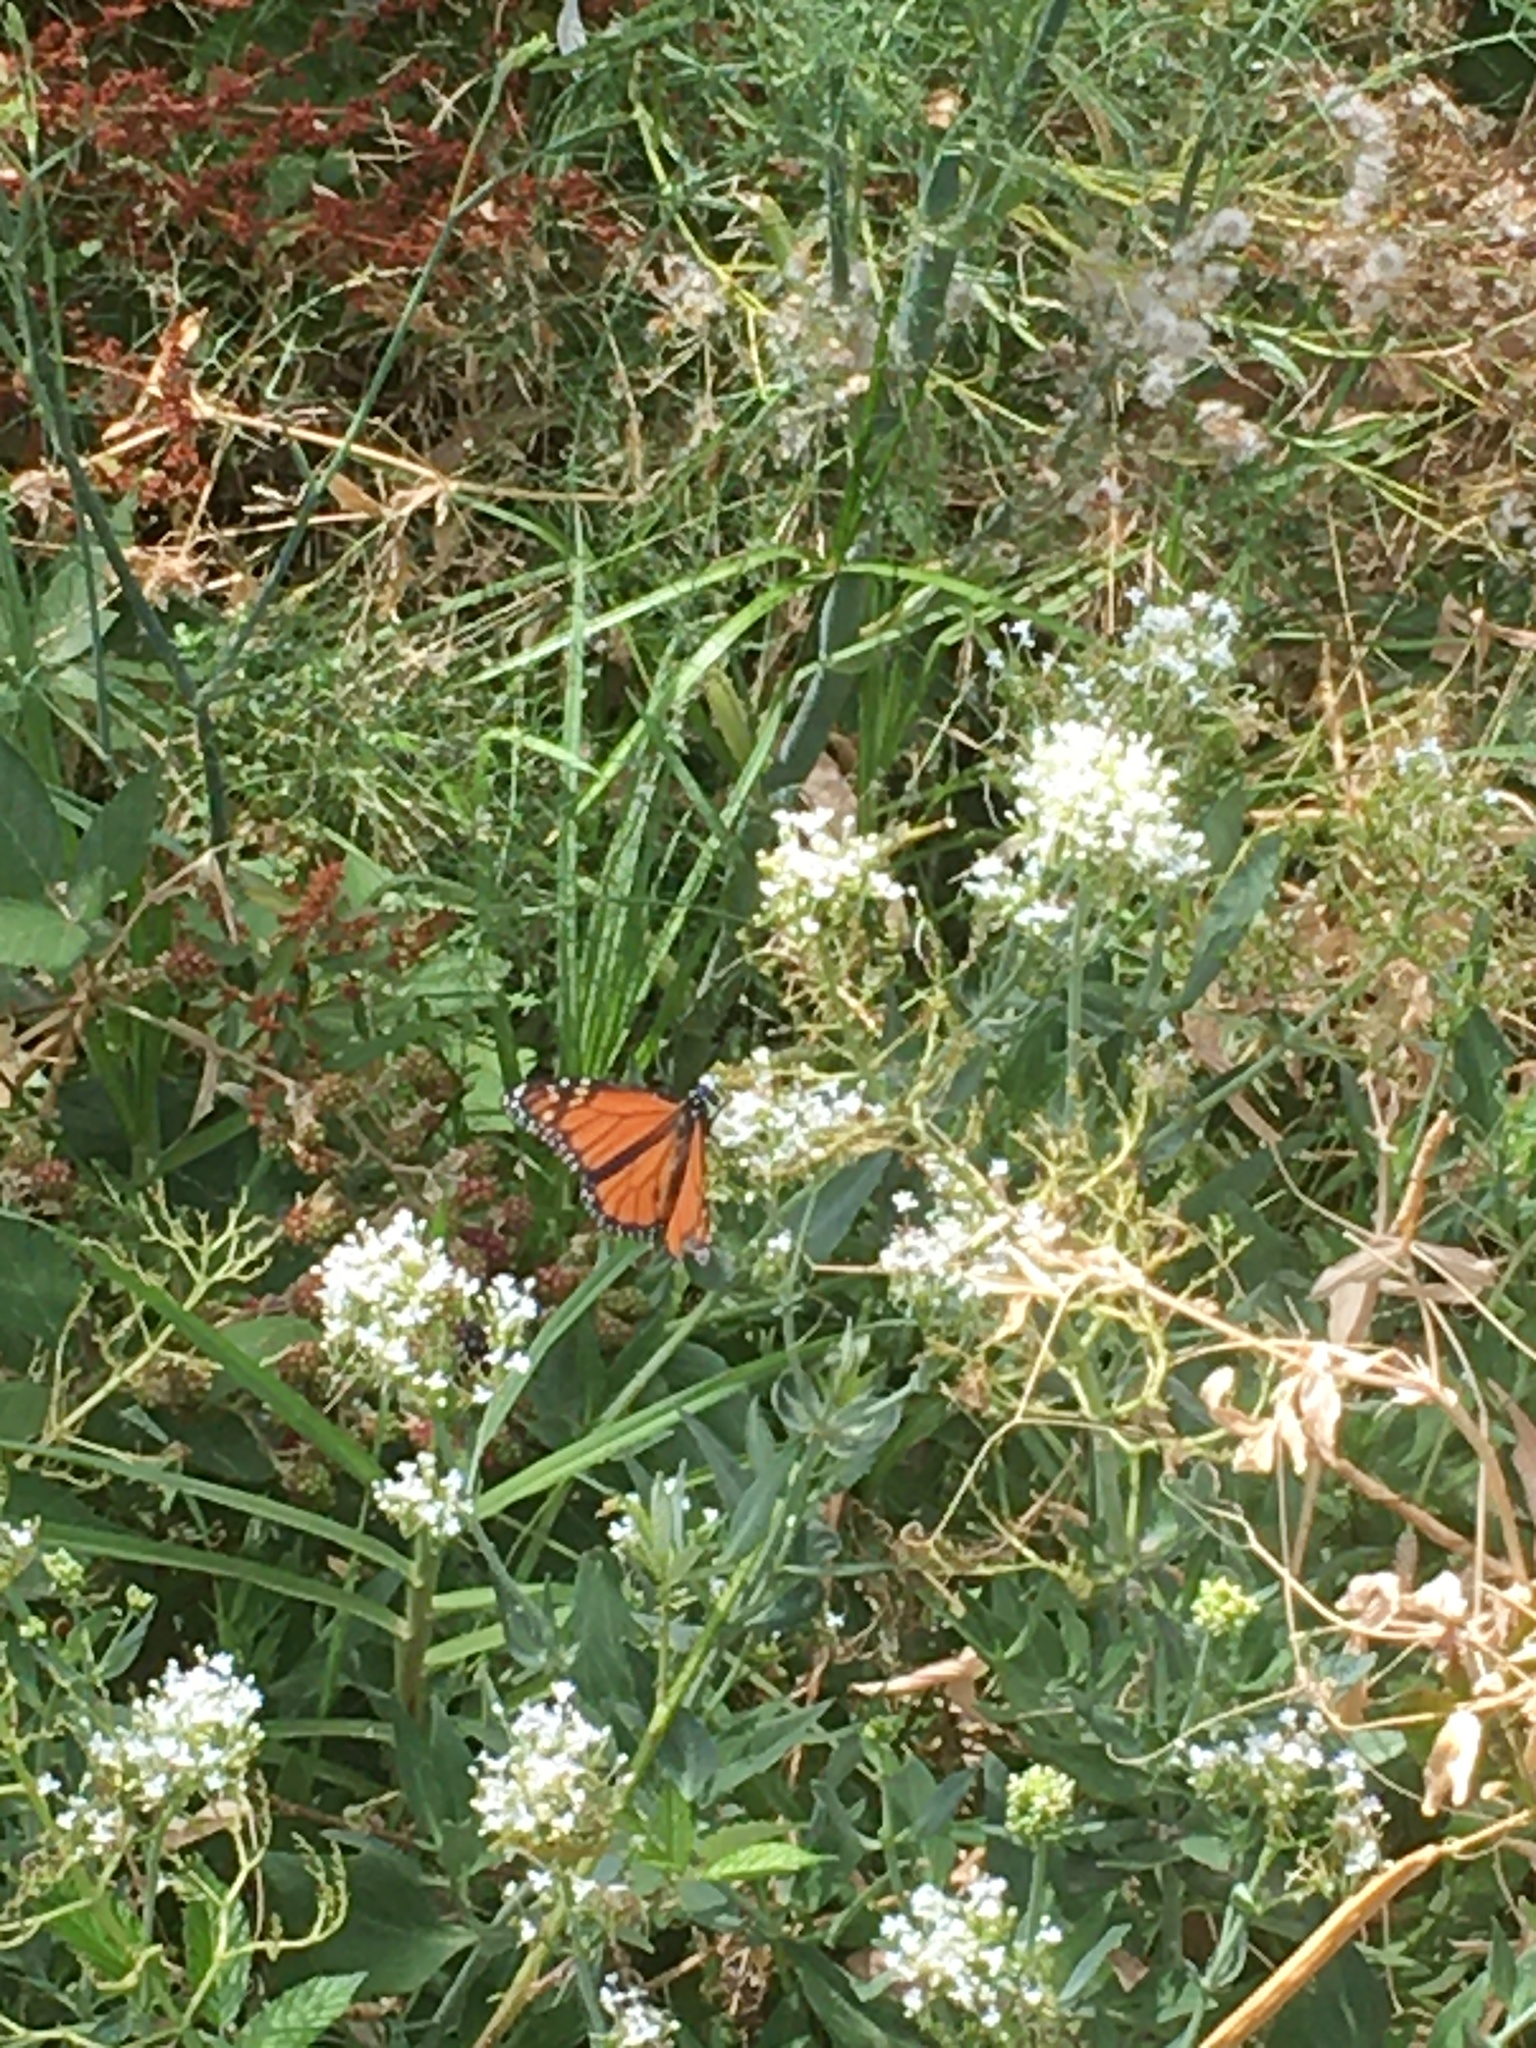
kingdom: Animalia
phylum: Arthropoda
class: Insecta
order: Lepidoptera
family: Nymphalidae
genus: Danaus
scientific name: Danaus plexippus
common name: Monarch
